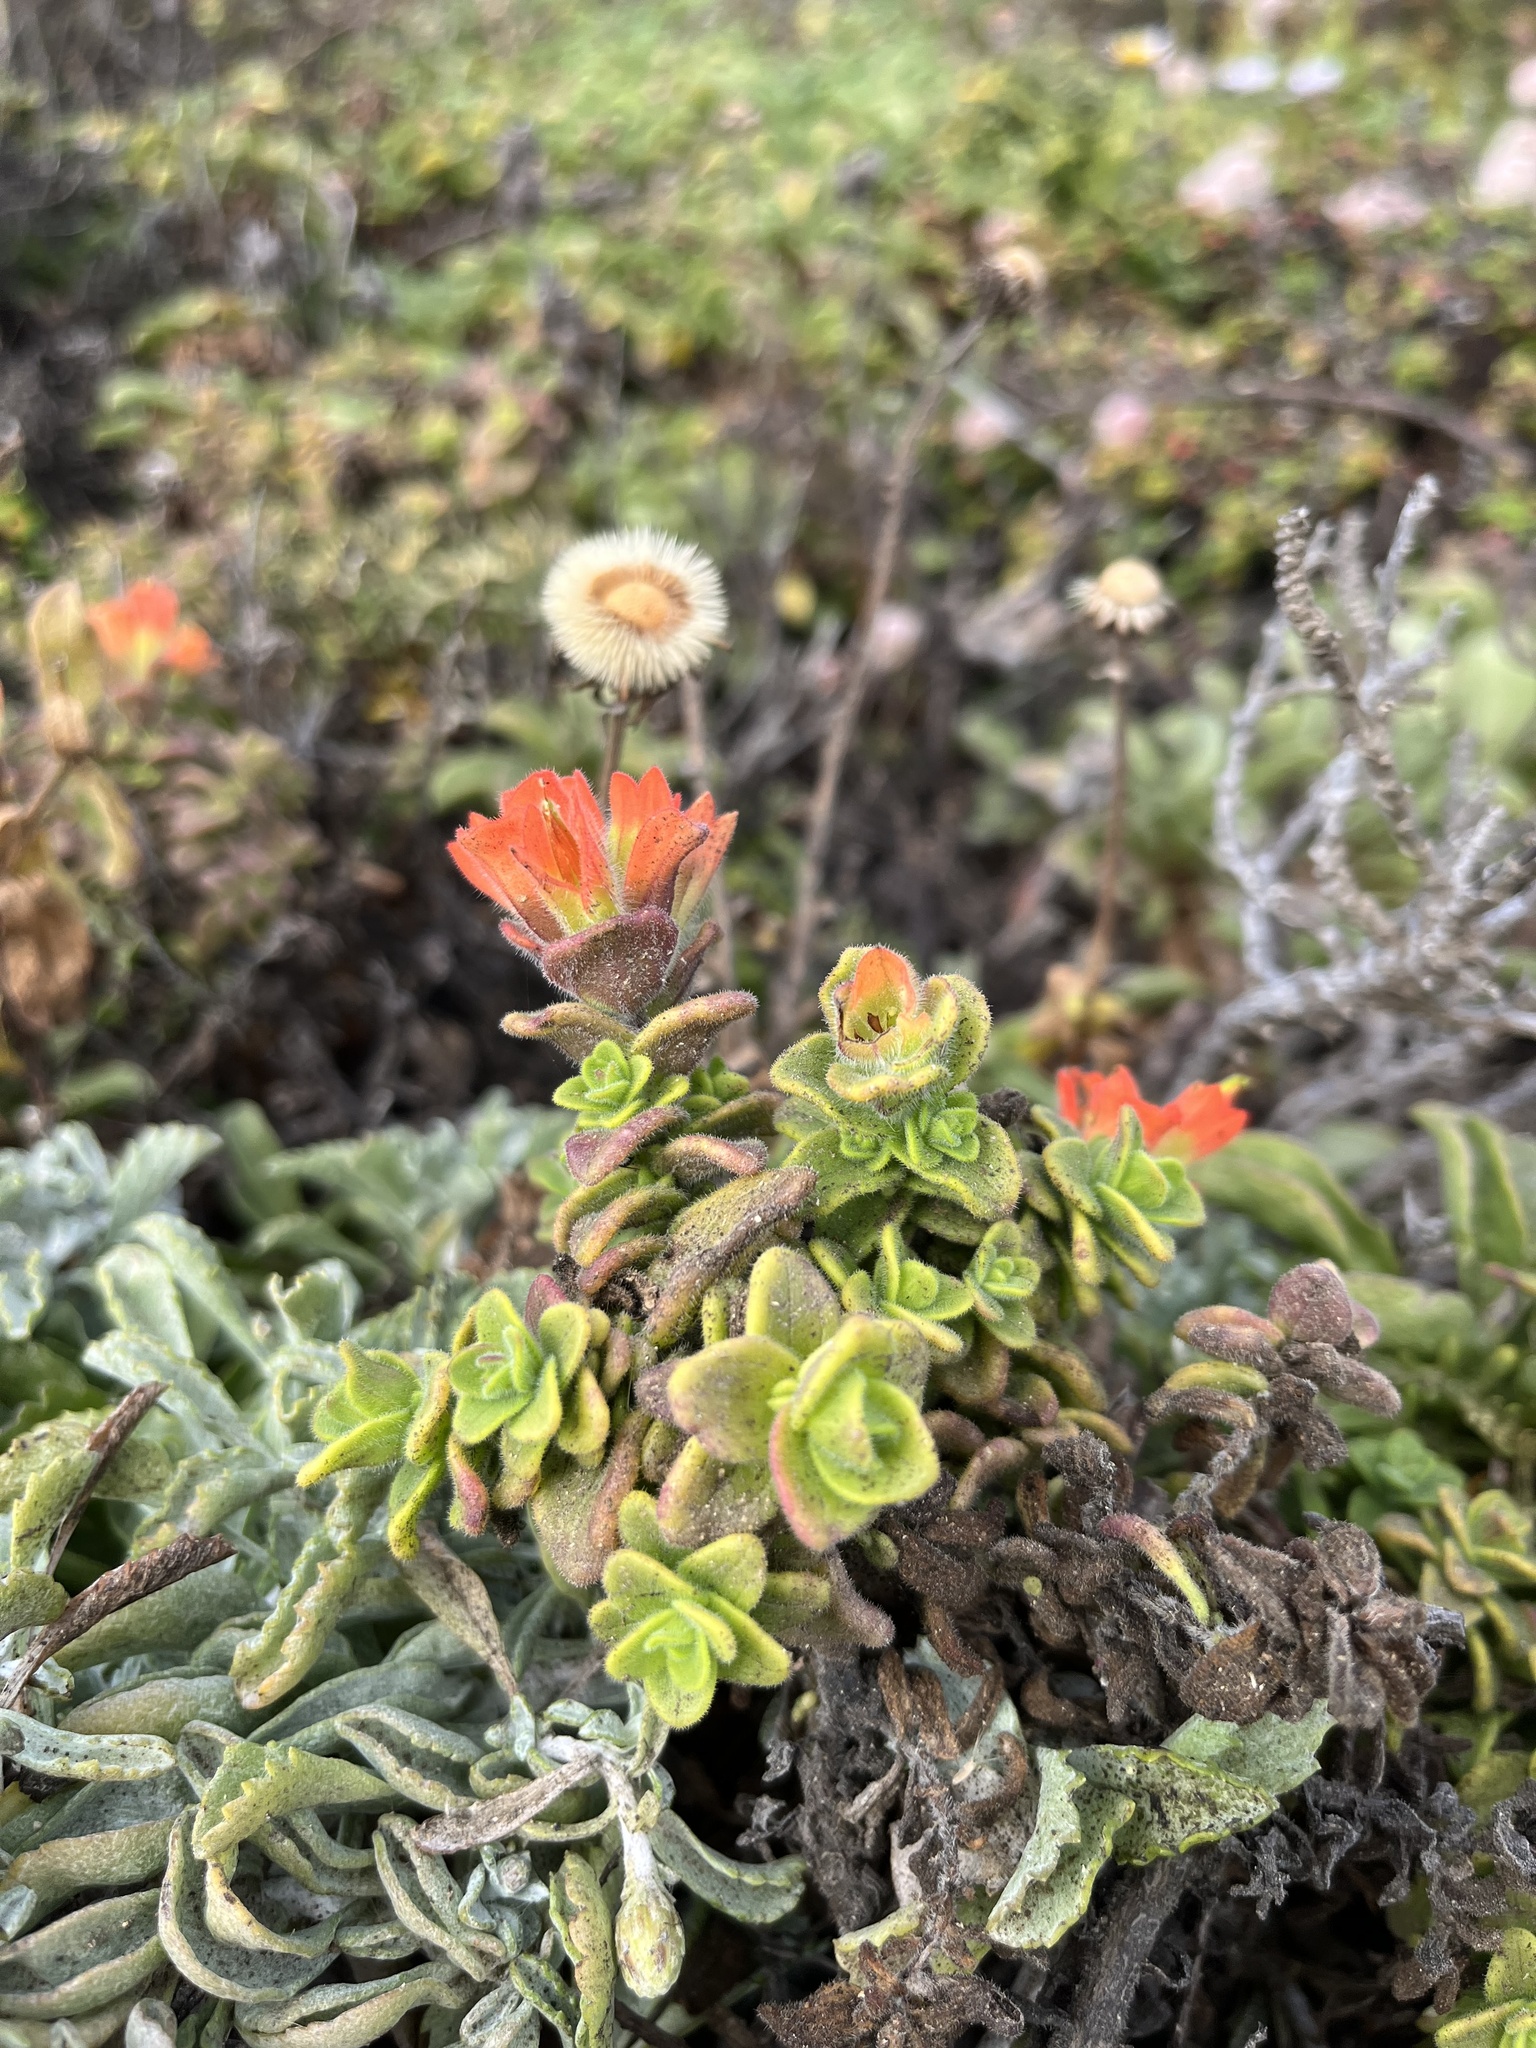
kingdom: Plantae
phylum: Tracheophyta
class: Magnoliopsida
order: Lamiales
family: Orobanchaceae
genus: Castilleja
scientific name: Castilleja latifolia
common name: Monterey indian paintbrush
